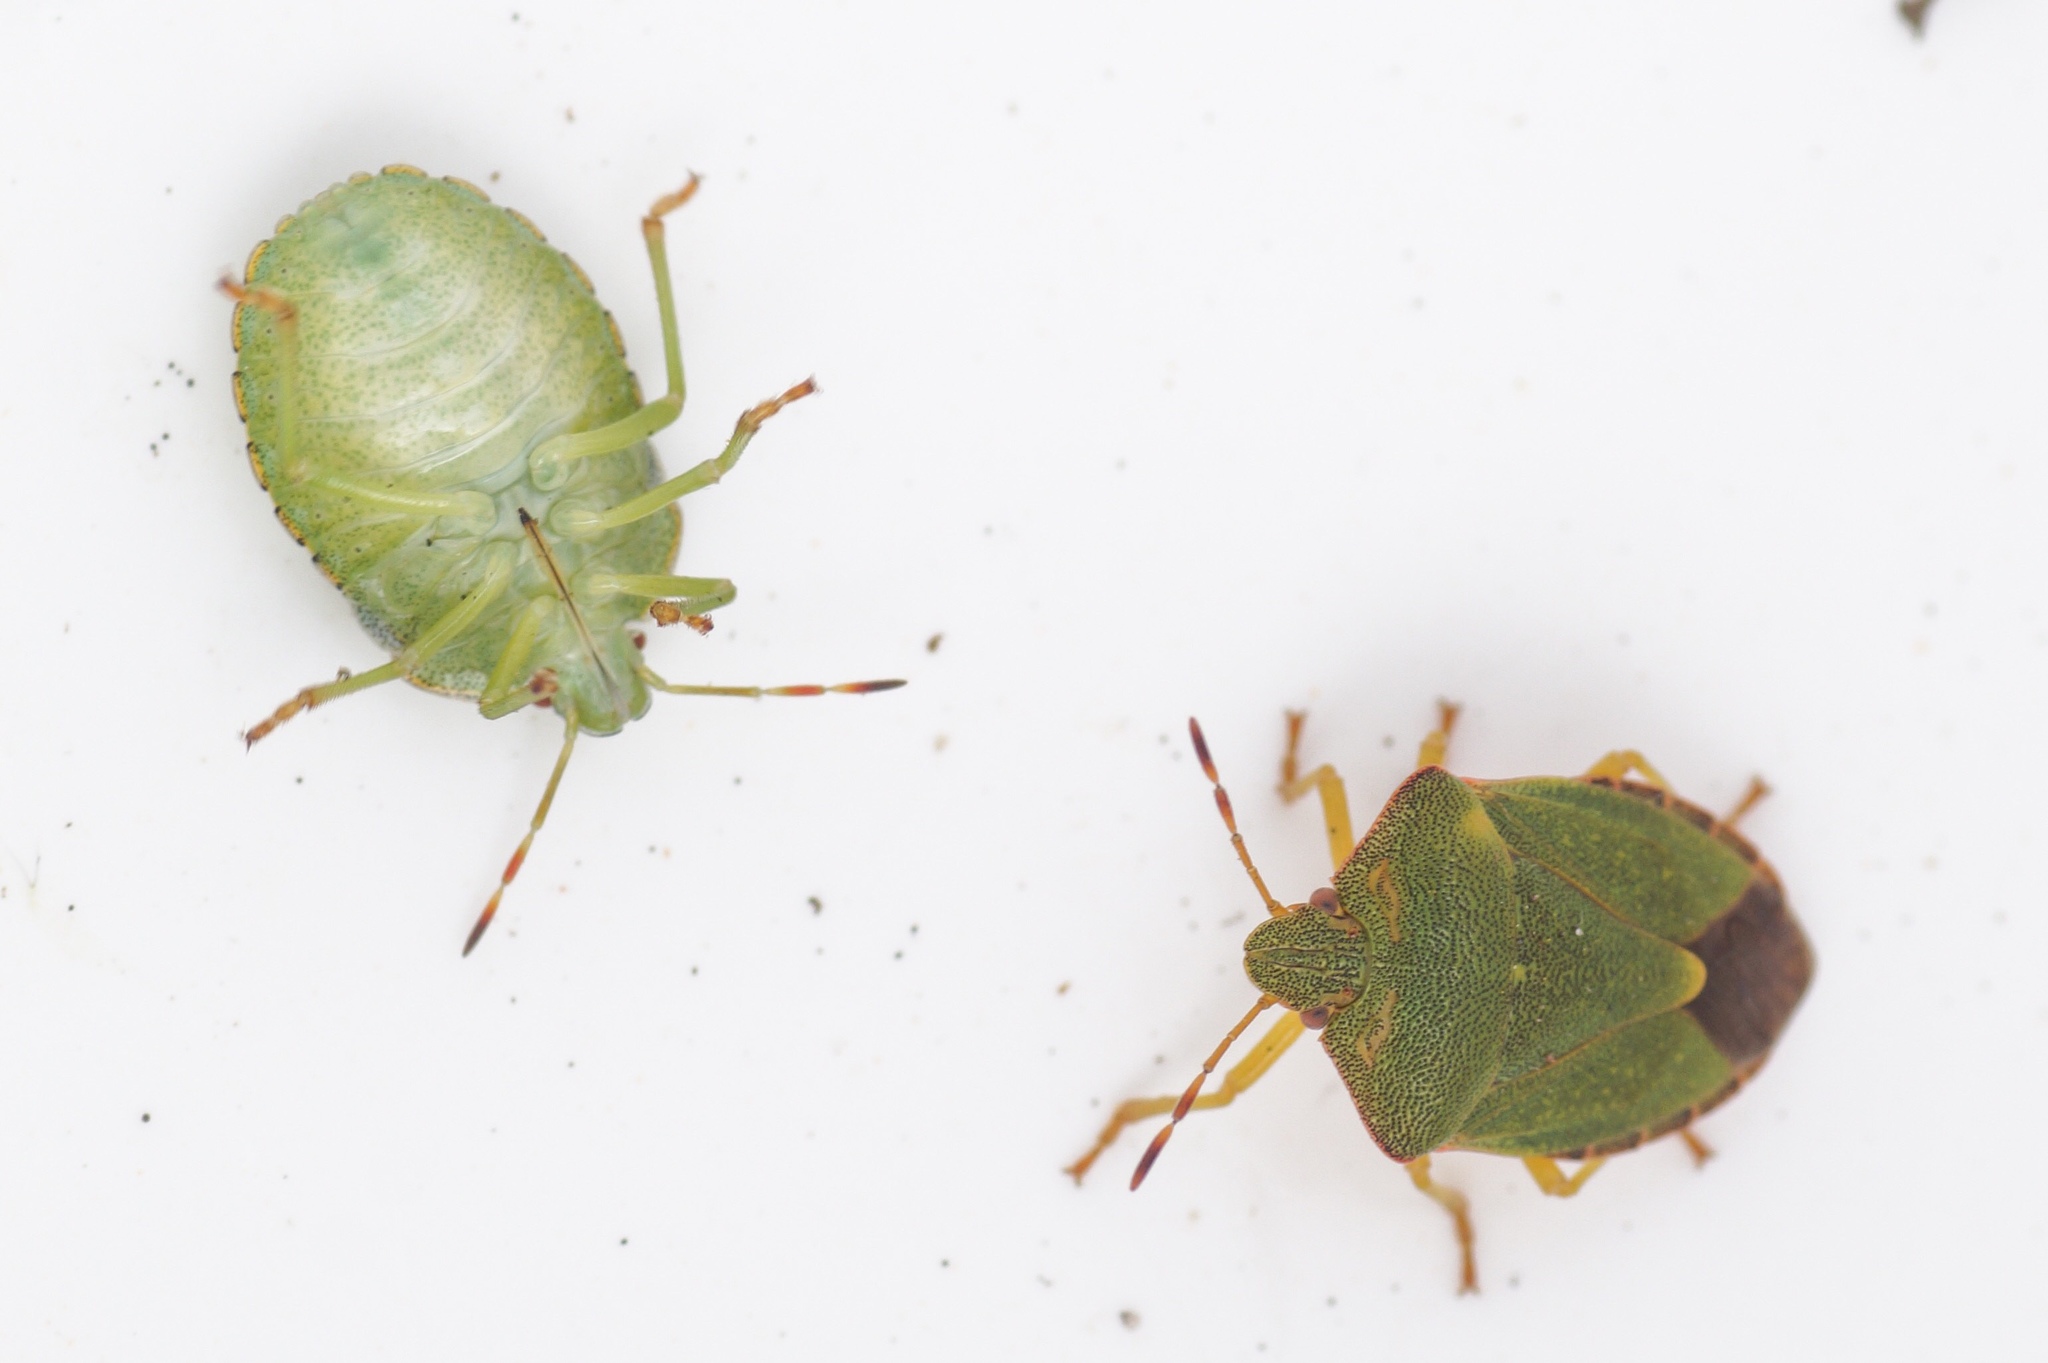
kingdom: Animalia
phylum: Arthropoda
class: Insecta
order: Hemiptera
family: Pentatomidae
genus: Palomena
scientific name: Palomena prasina
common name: Green shieldbug
